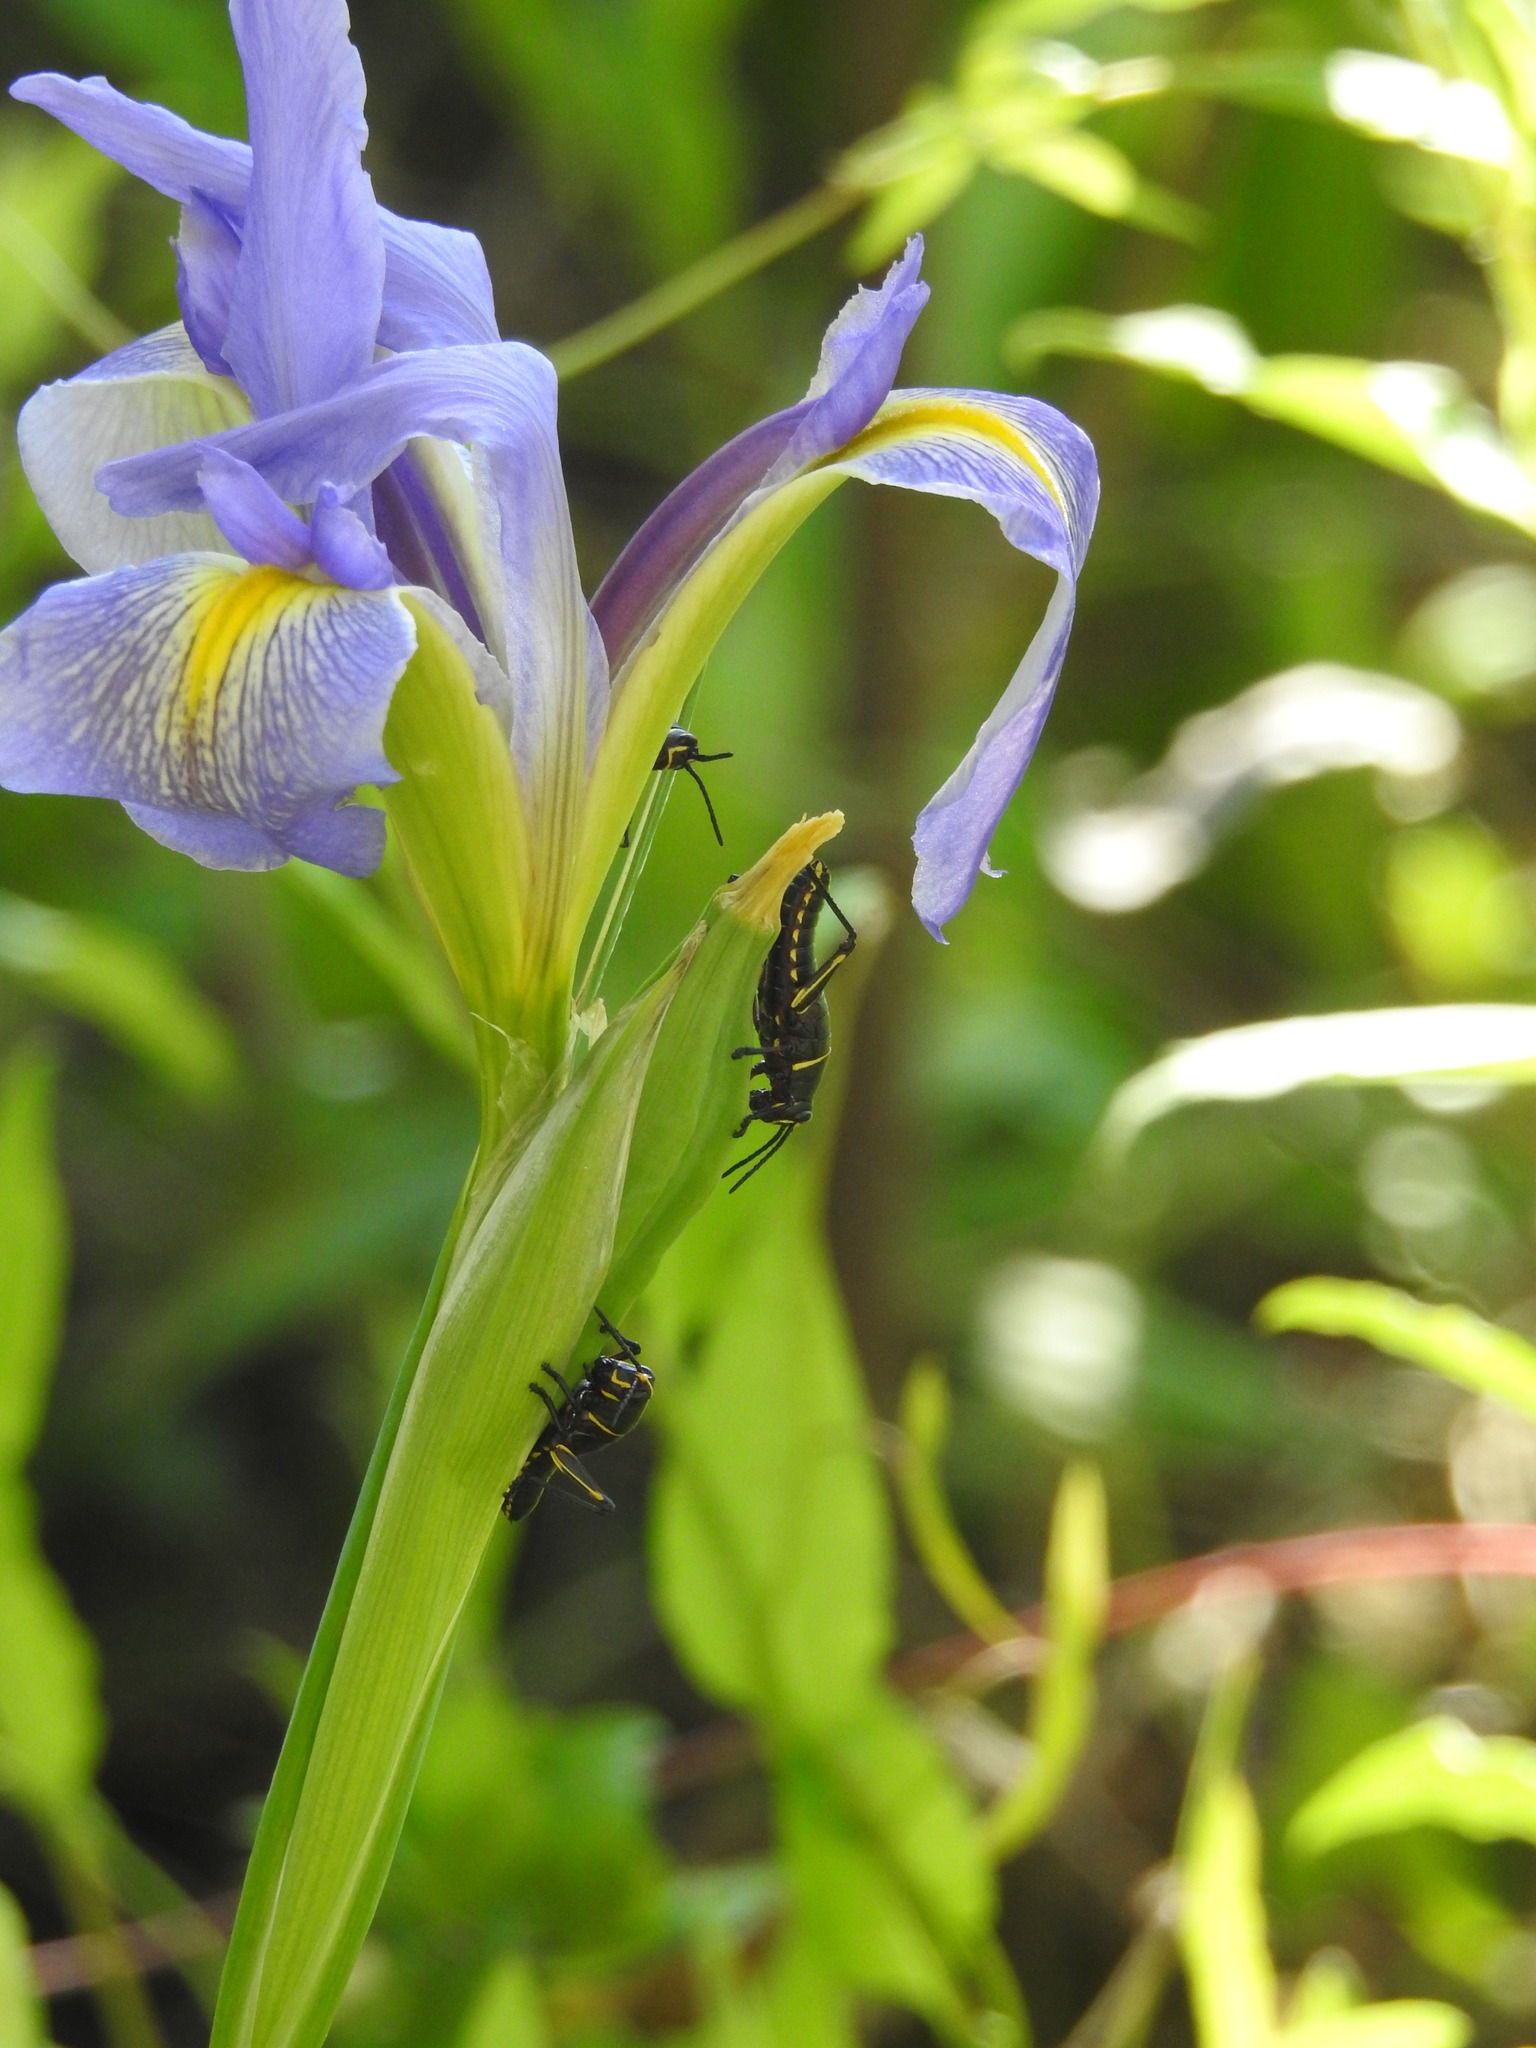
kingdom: Animalia
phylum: Arthropoda
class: Insecta
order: Orthoptera
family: Romaleidae
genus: Romalea
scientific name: Romalea microptera
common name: Eastern lubber grasshopper
